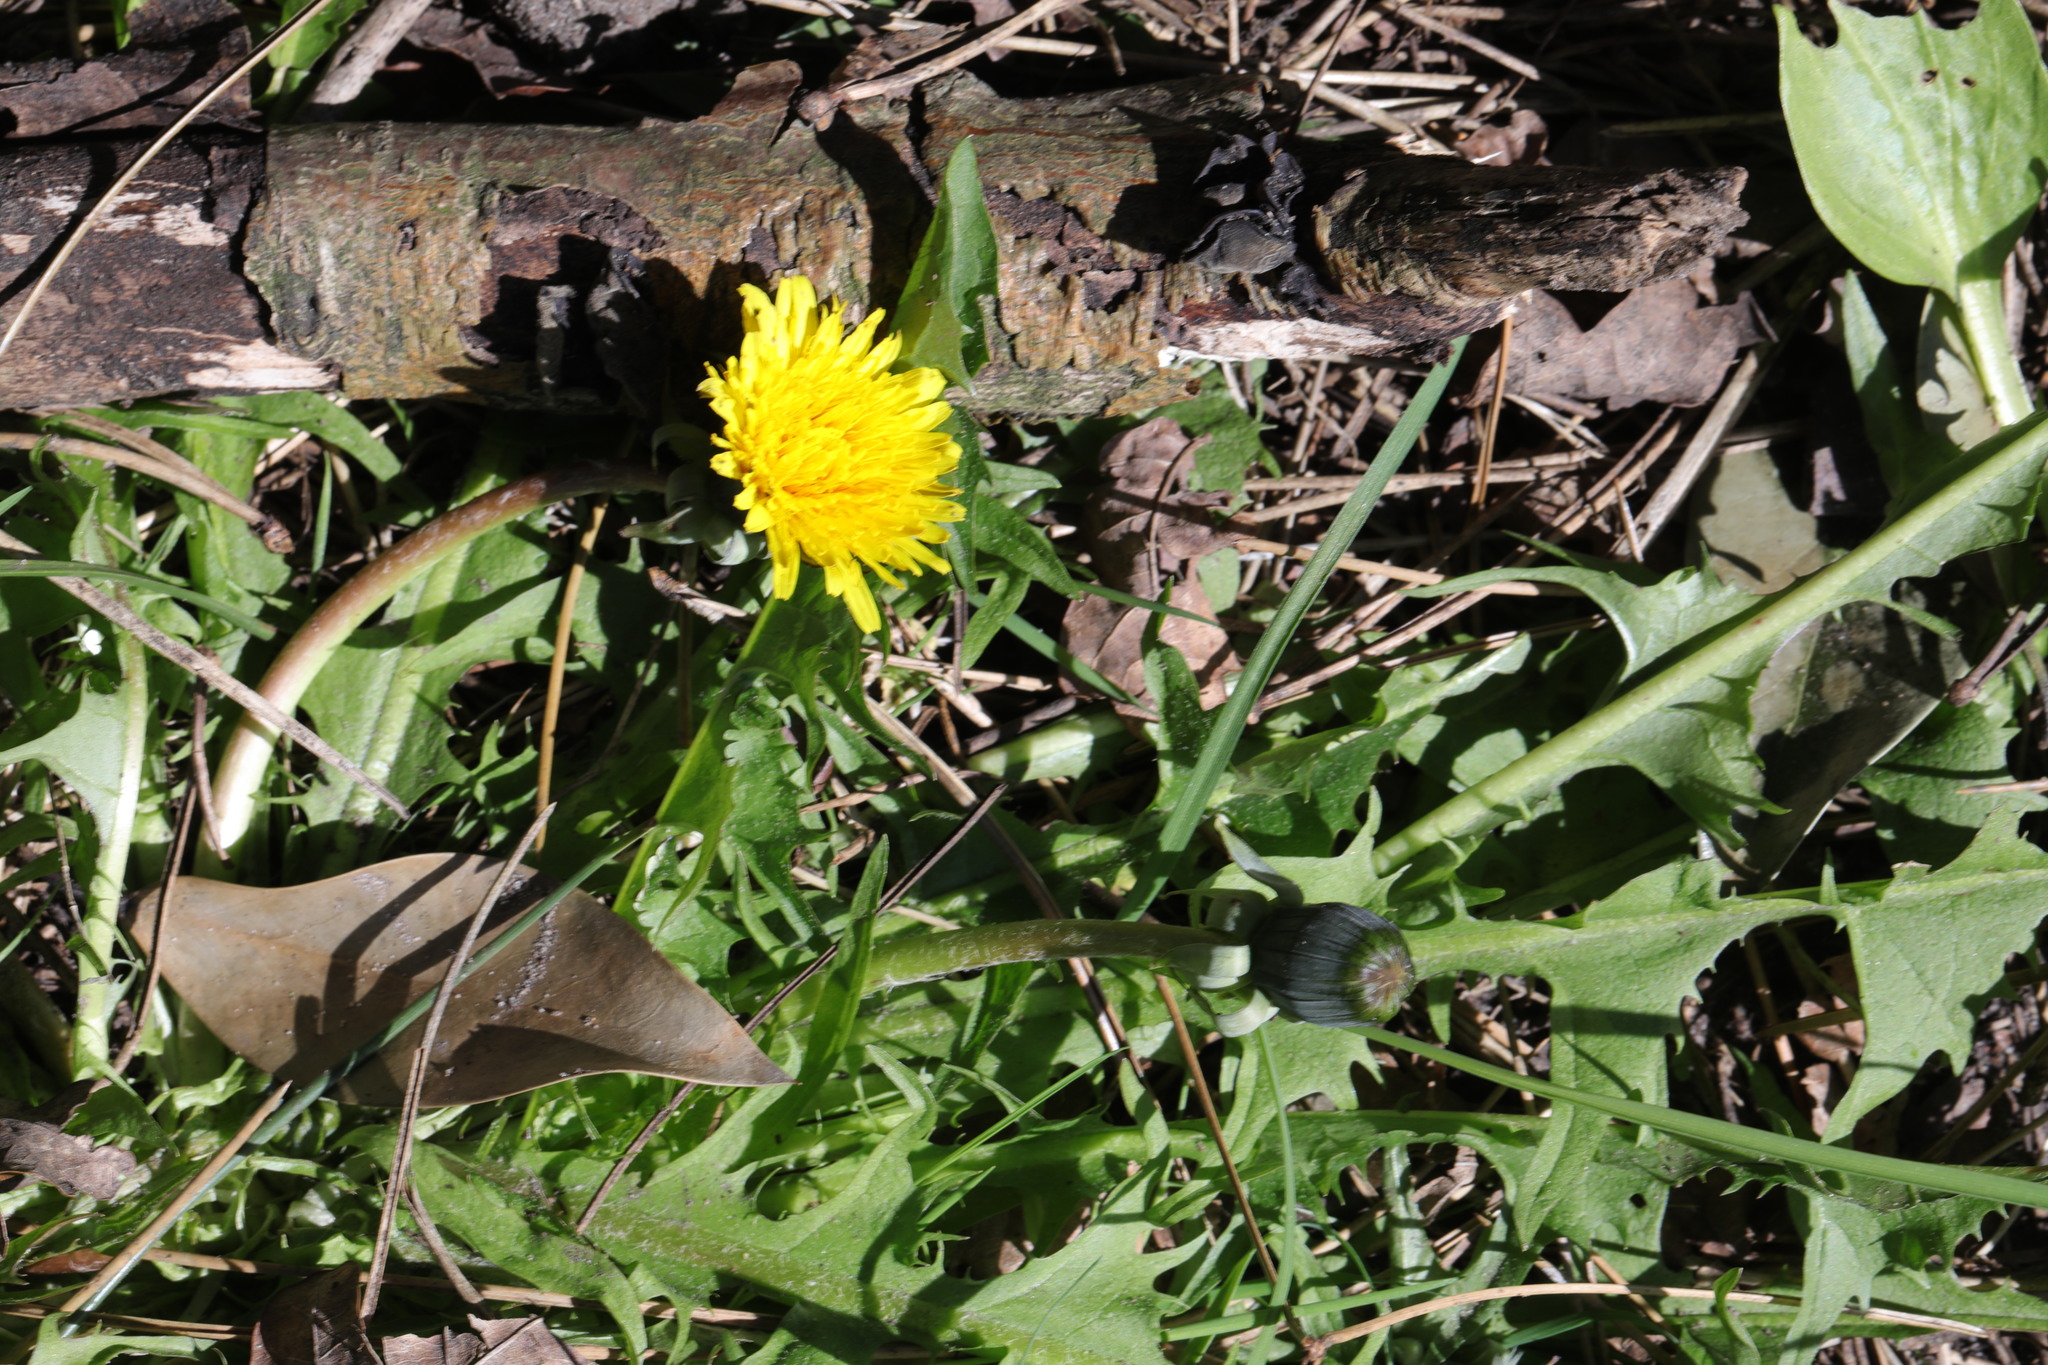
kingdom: Plantae
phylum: Tracheophyta
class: Magnoliopsida
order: Asterales
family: Asteraceae
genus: Taraxacum
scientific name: Taraxacum officinale
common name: Common dandelion
